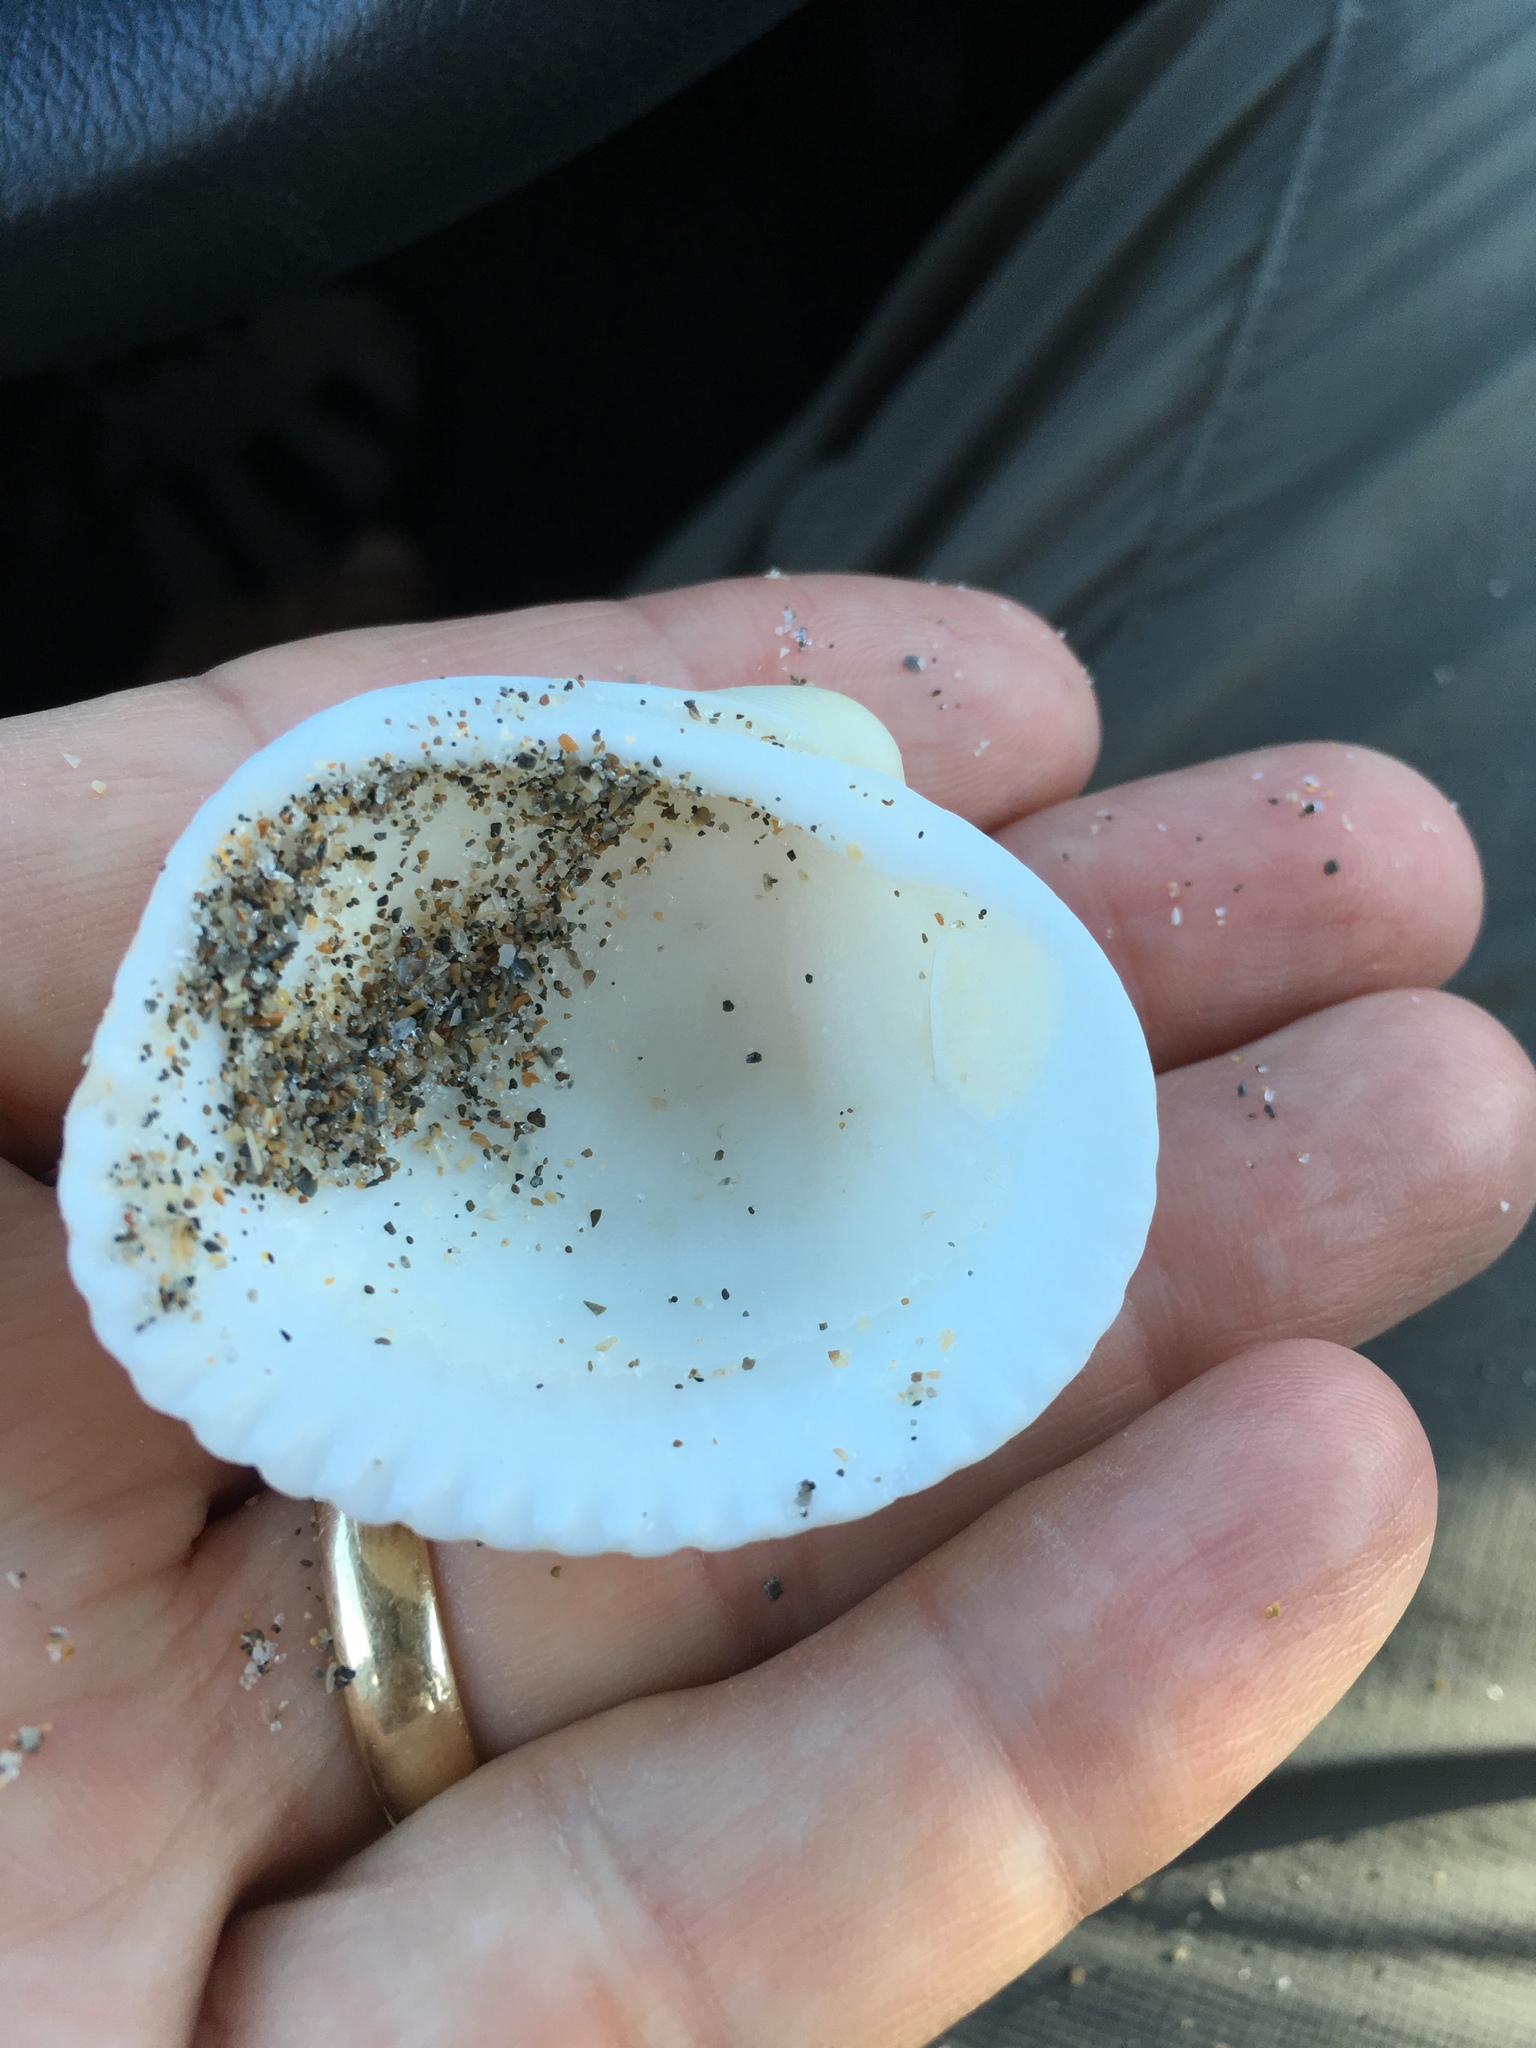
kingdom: Animalia
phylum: Mollusca
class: Bivalvia
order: Arcida
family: Arcidae
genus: Lunarca
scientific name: Lunarca ovalis
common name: Blood ark
